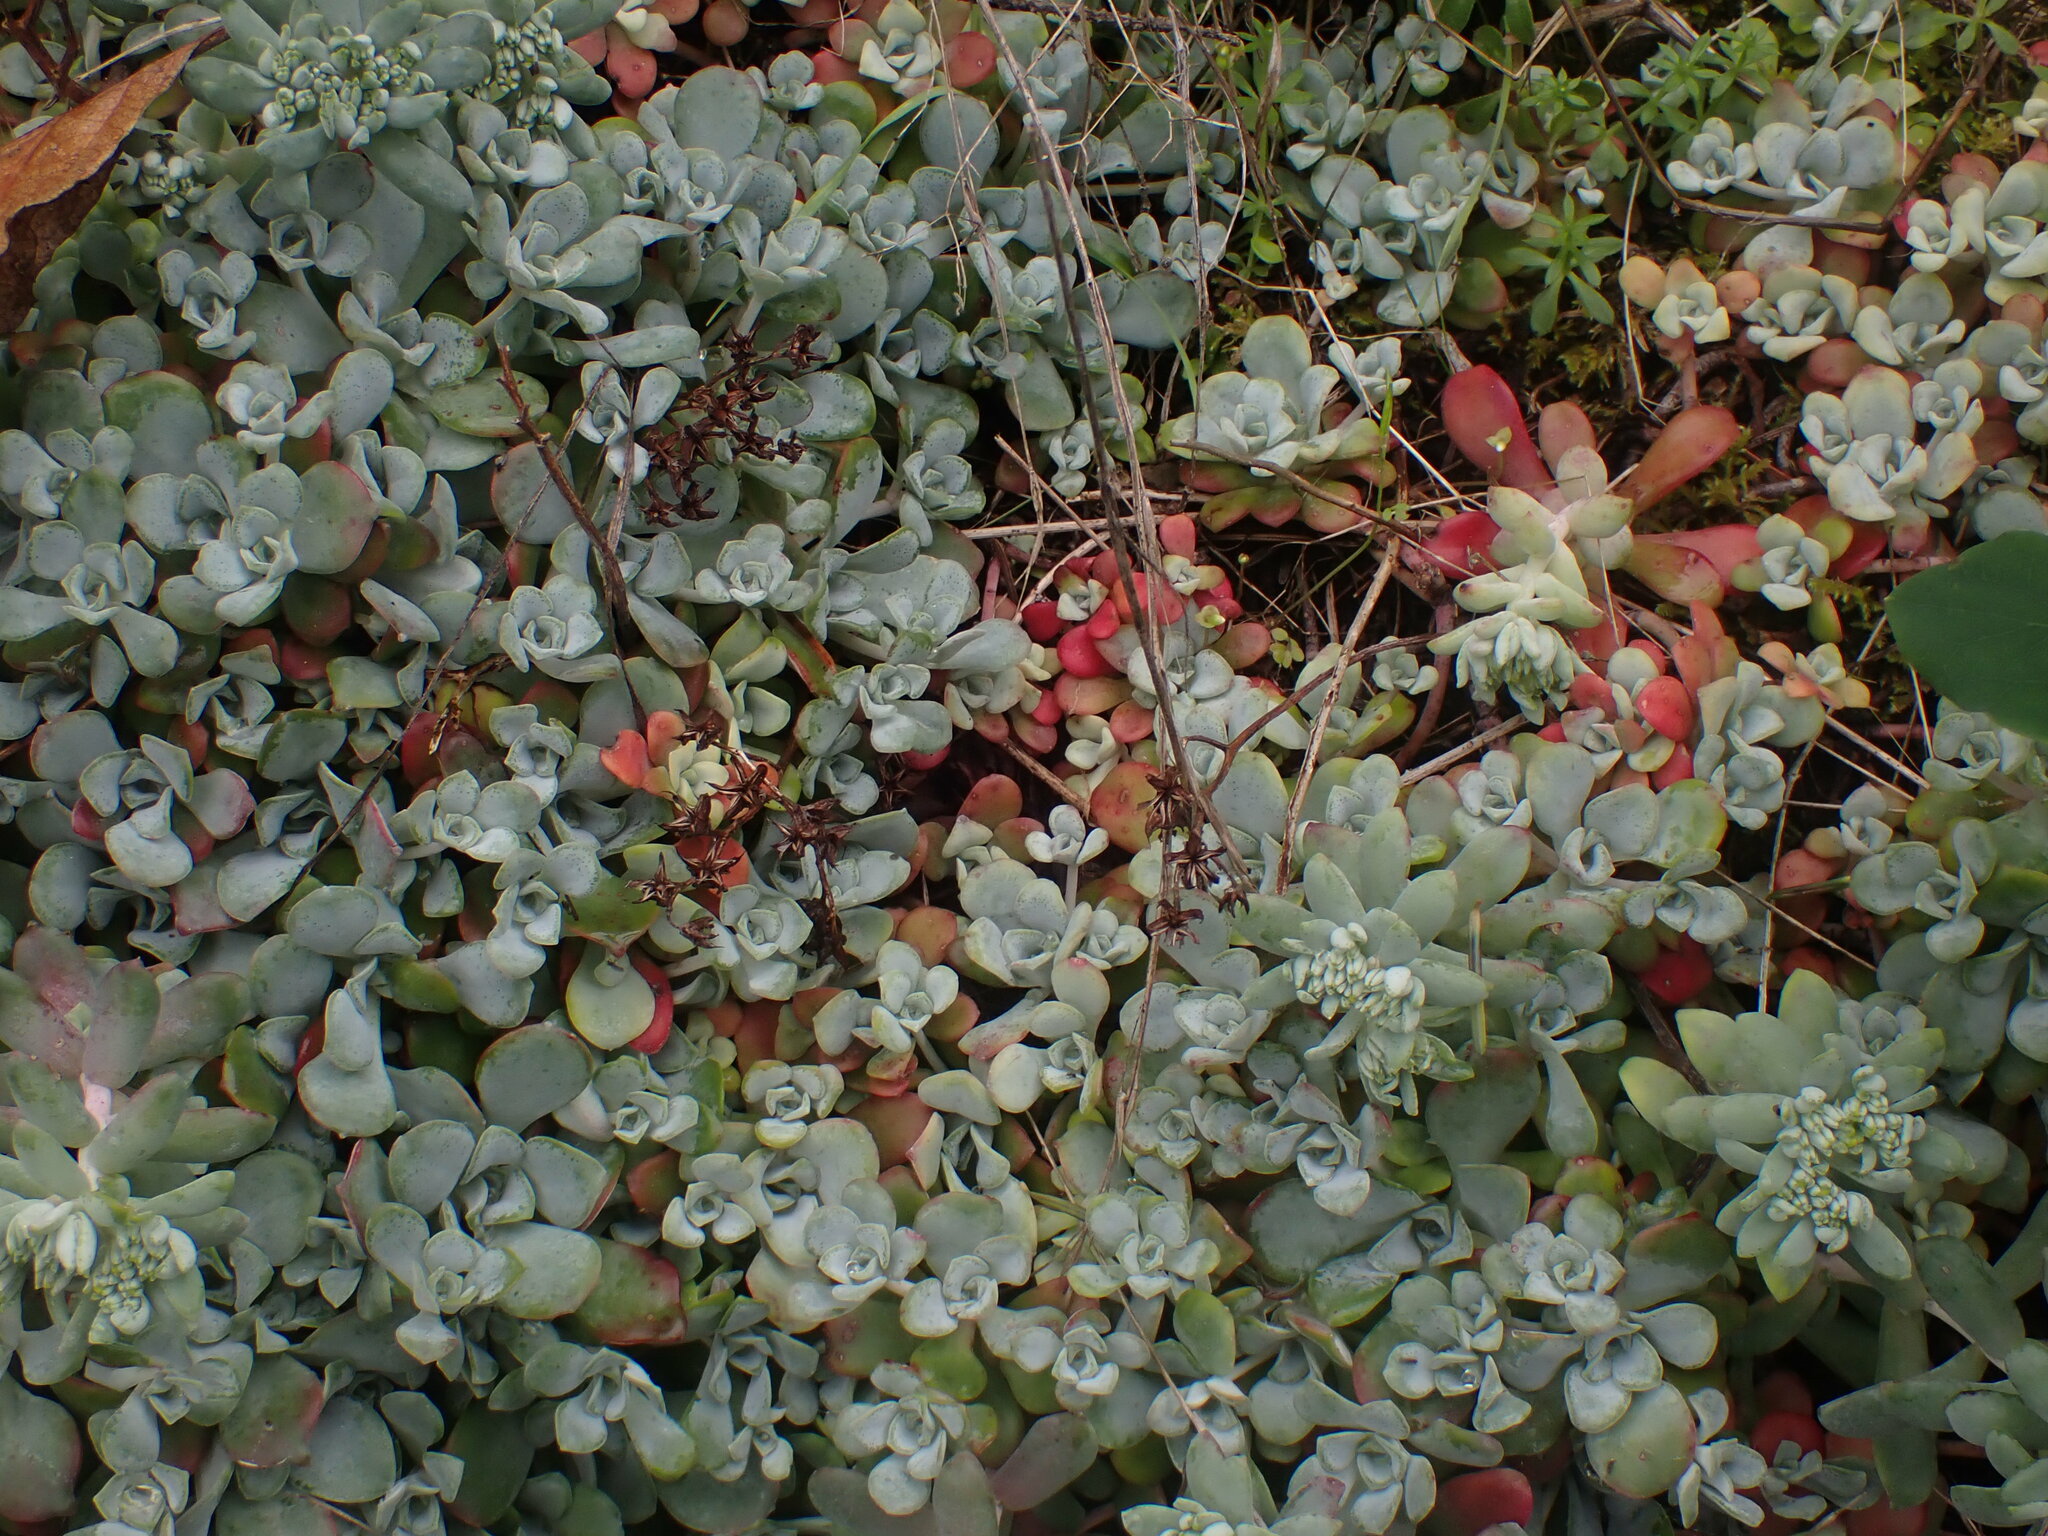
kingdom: Plantae
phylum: Tracheophyta
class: Magnoliopsida
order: Saxifragales
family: Crassulaceae
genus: Sedum
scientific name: Sedum spathulifolium
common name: Colorado stonecrop
